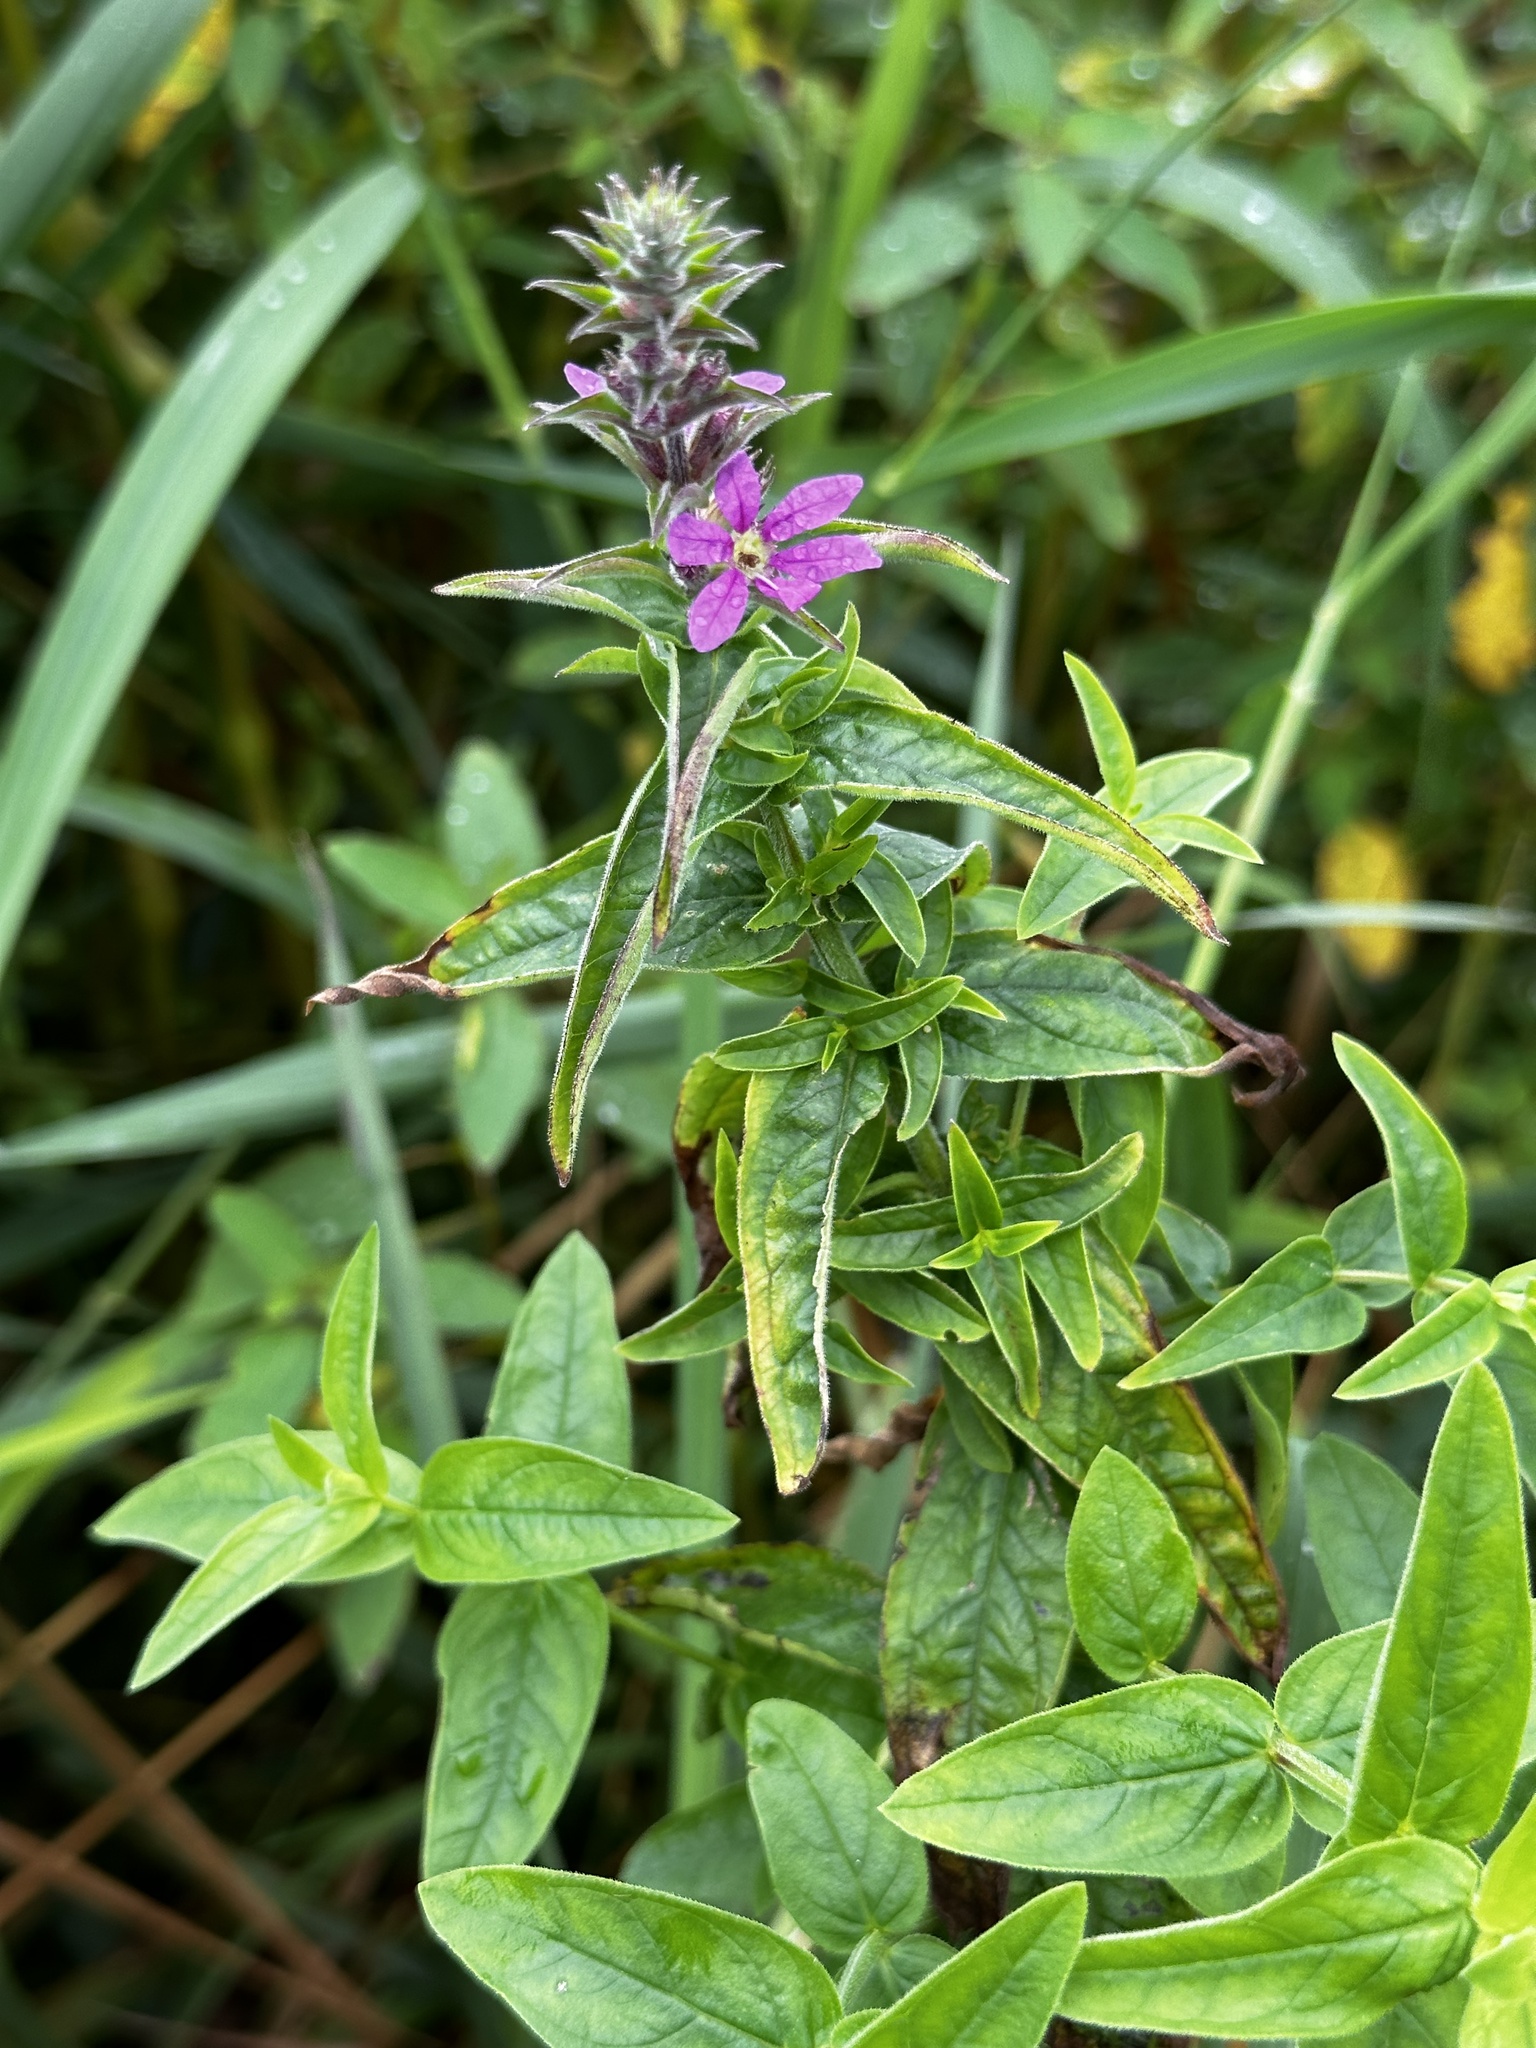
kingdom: Plantae
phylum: Tracheophyta
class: Magnoliopsida
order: Myrtales
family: Lythraceae
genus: Lythrum
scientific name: Lythrum salicaria
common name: Purple loosestrife
